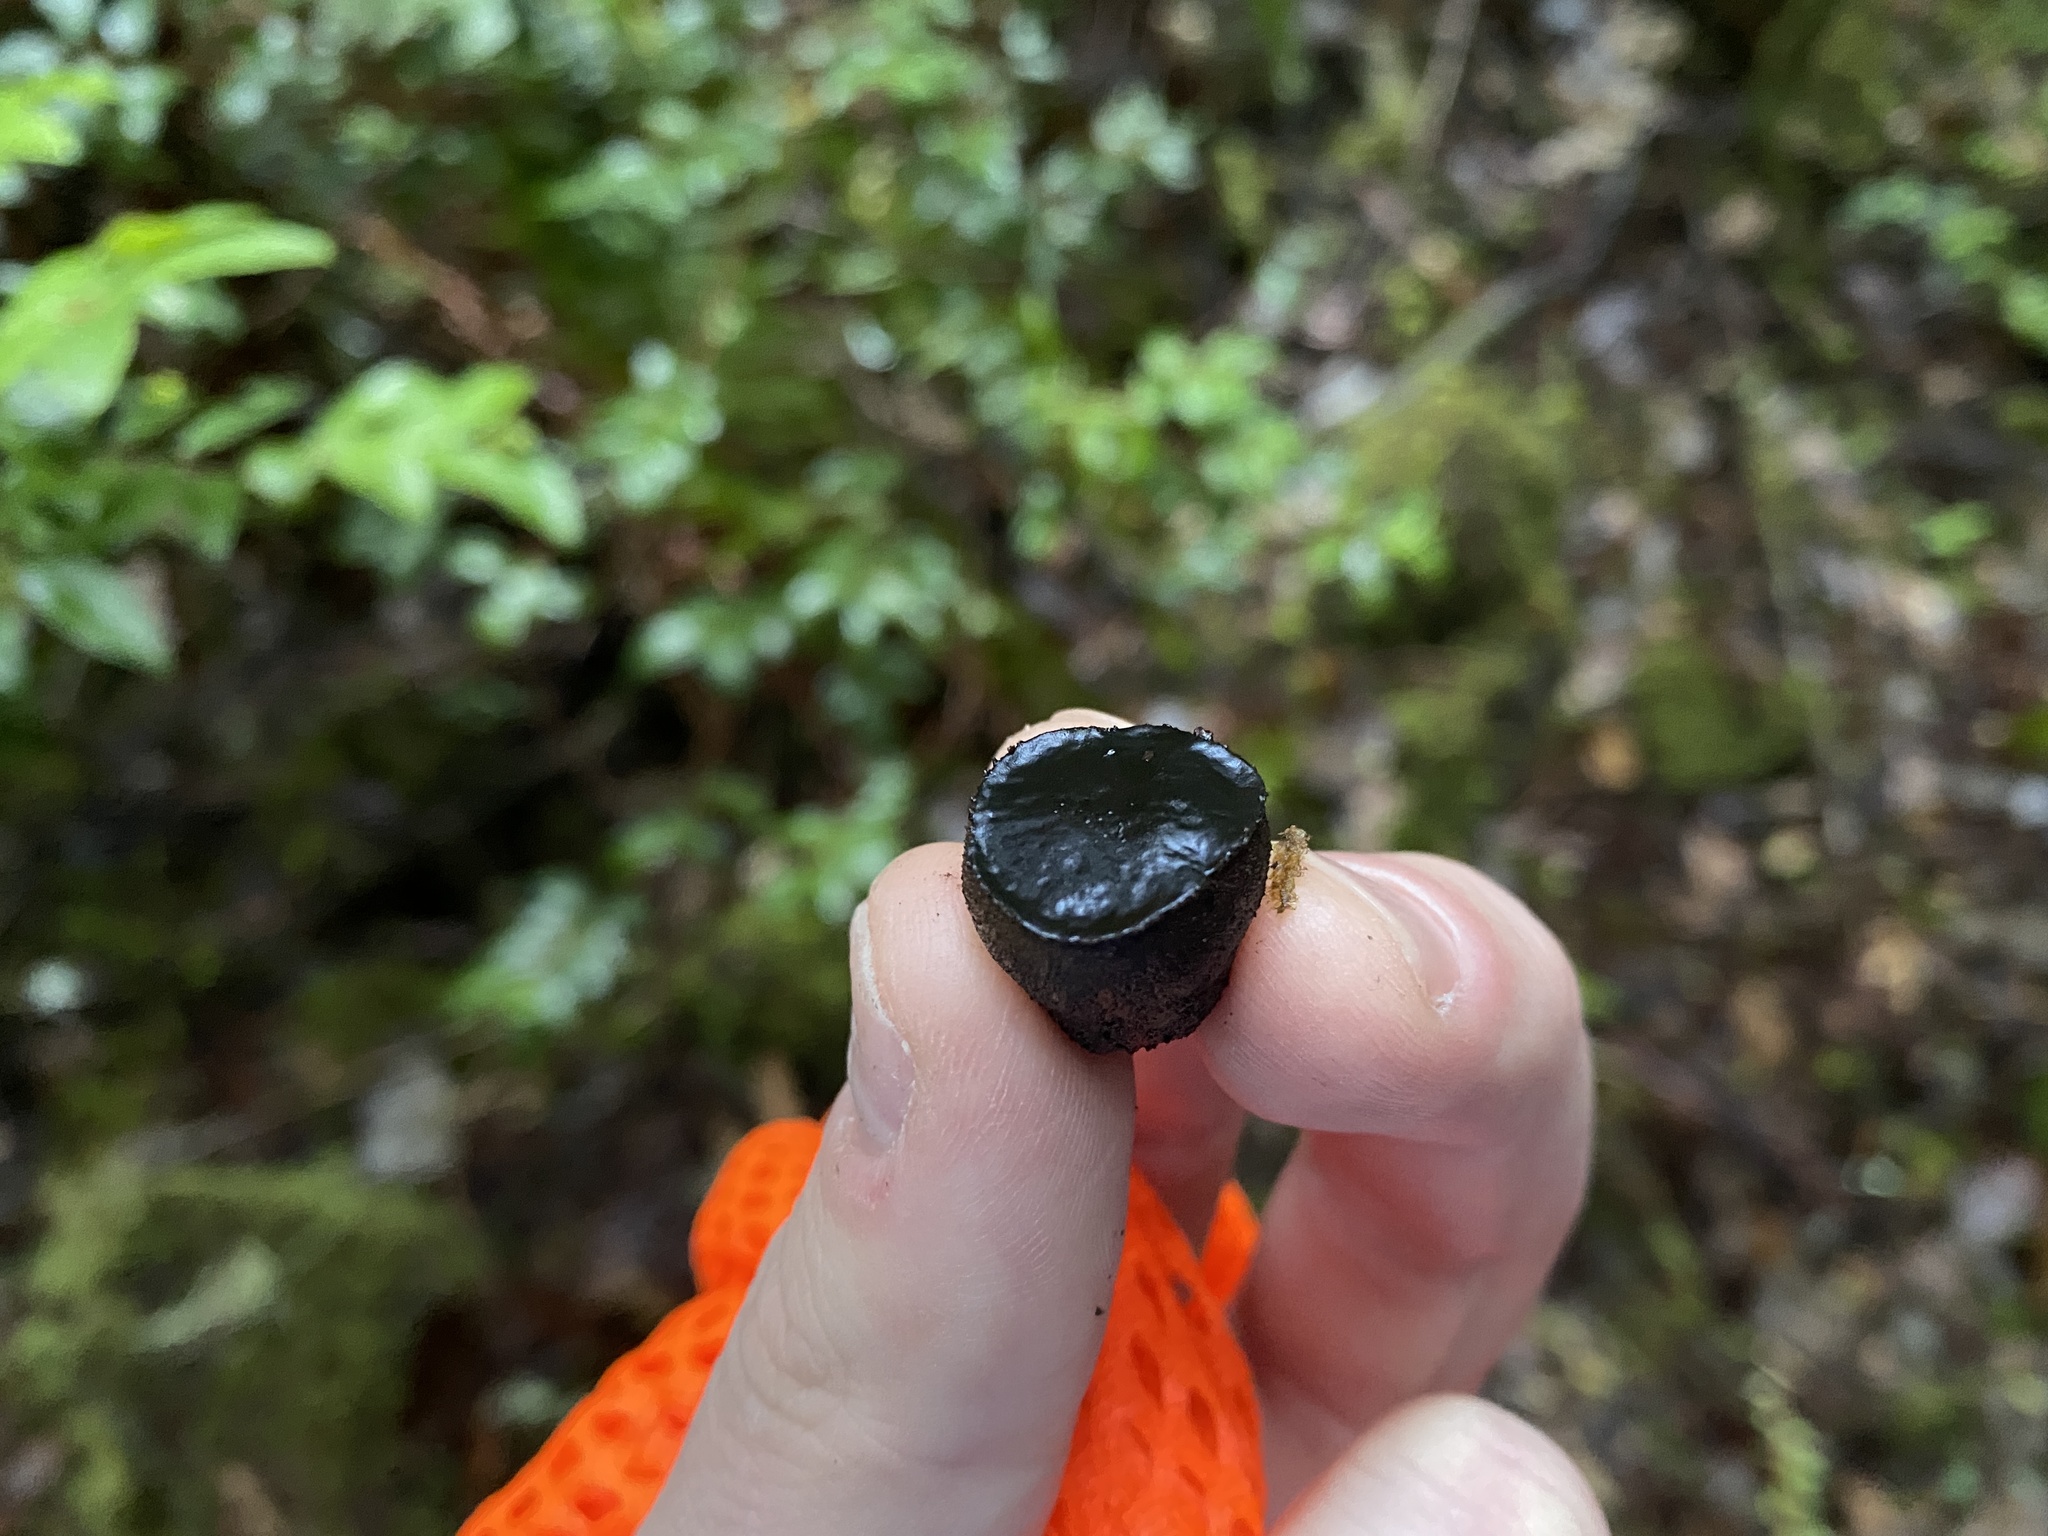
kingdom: Fungi
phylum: Ascomycota
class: Leotiomycetes
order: Phacidiales
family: Phacidiaceae
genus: Bulgaria
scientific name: Bulgaria inquinans
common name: Black bulgar
